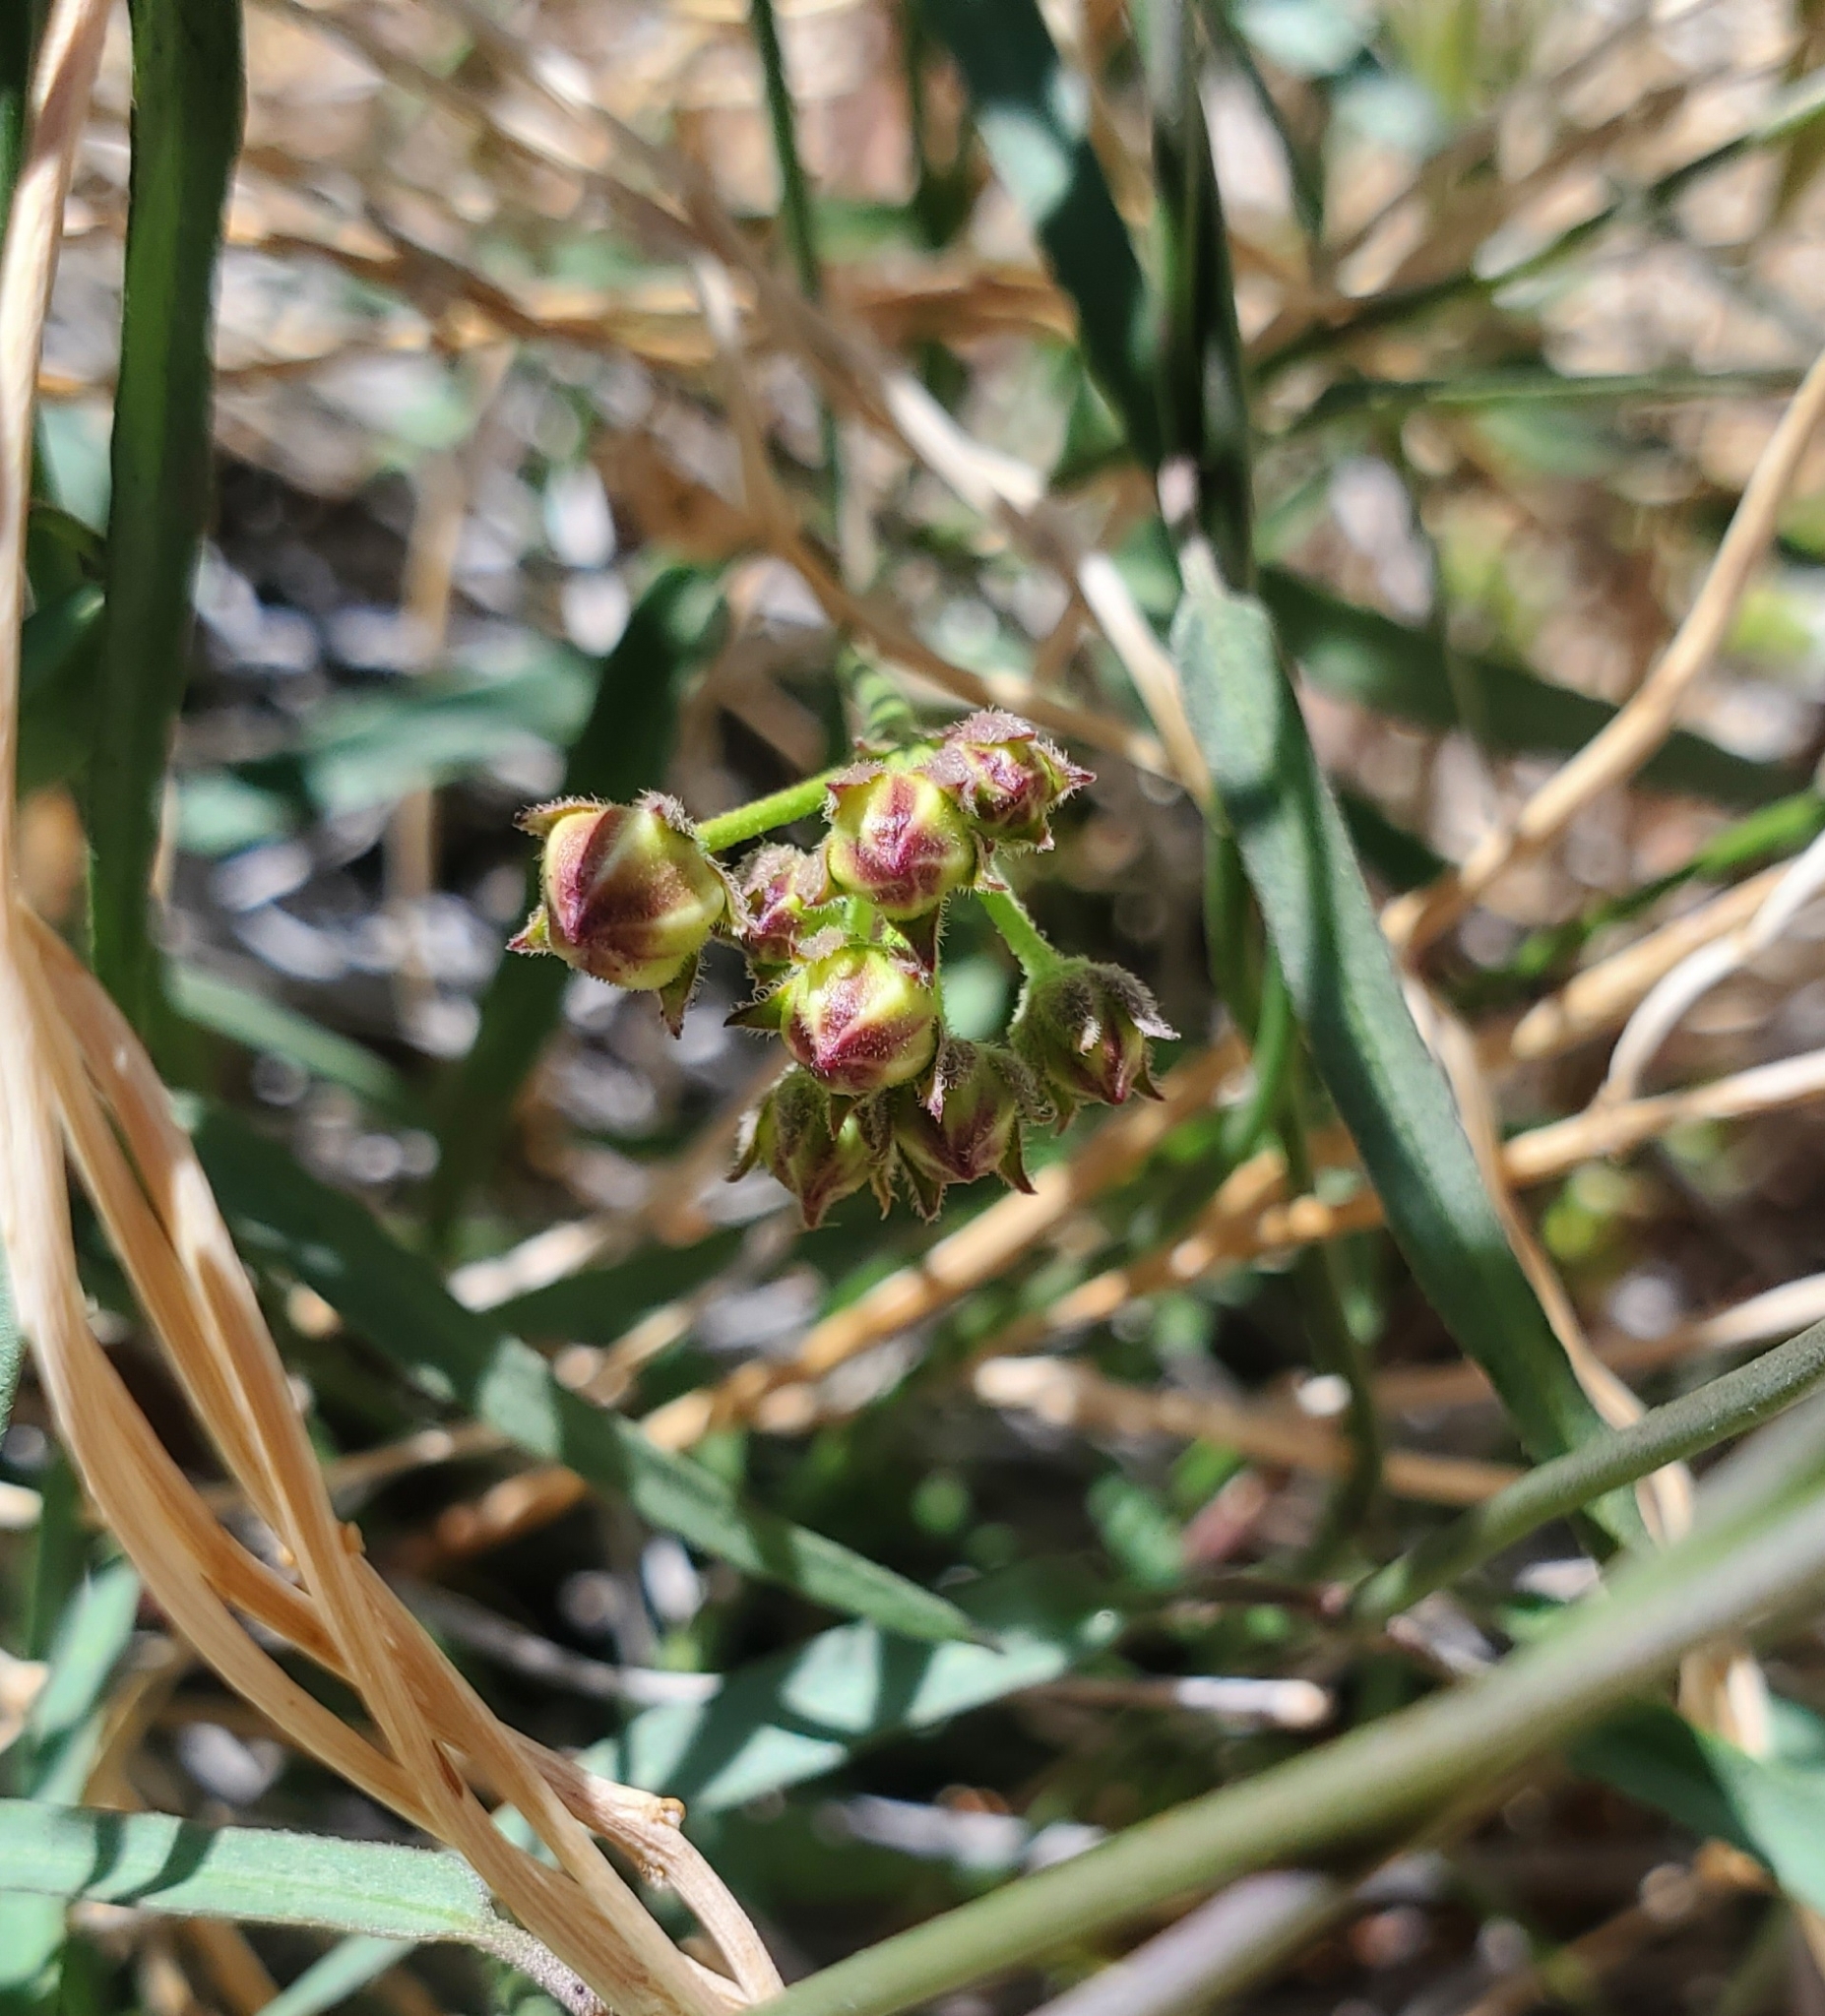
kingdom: Plantae
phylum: Tracheophyta
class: Magnoliopsida
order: Gentianales
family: Apocynaceae
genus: Funastrum
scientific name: Funastrum heterophyllum
